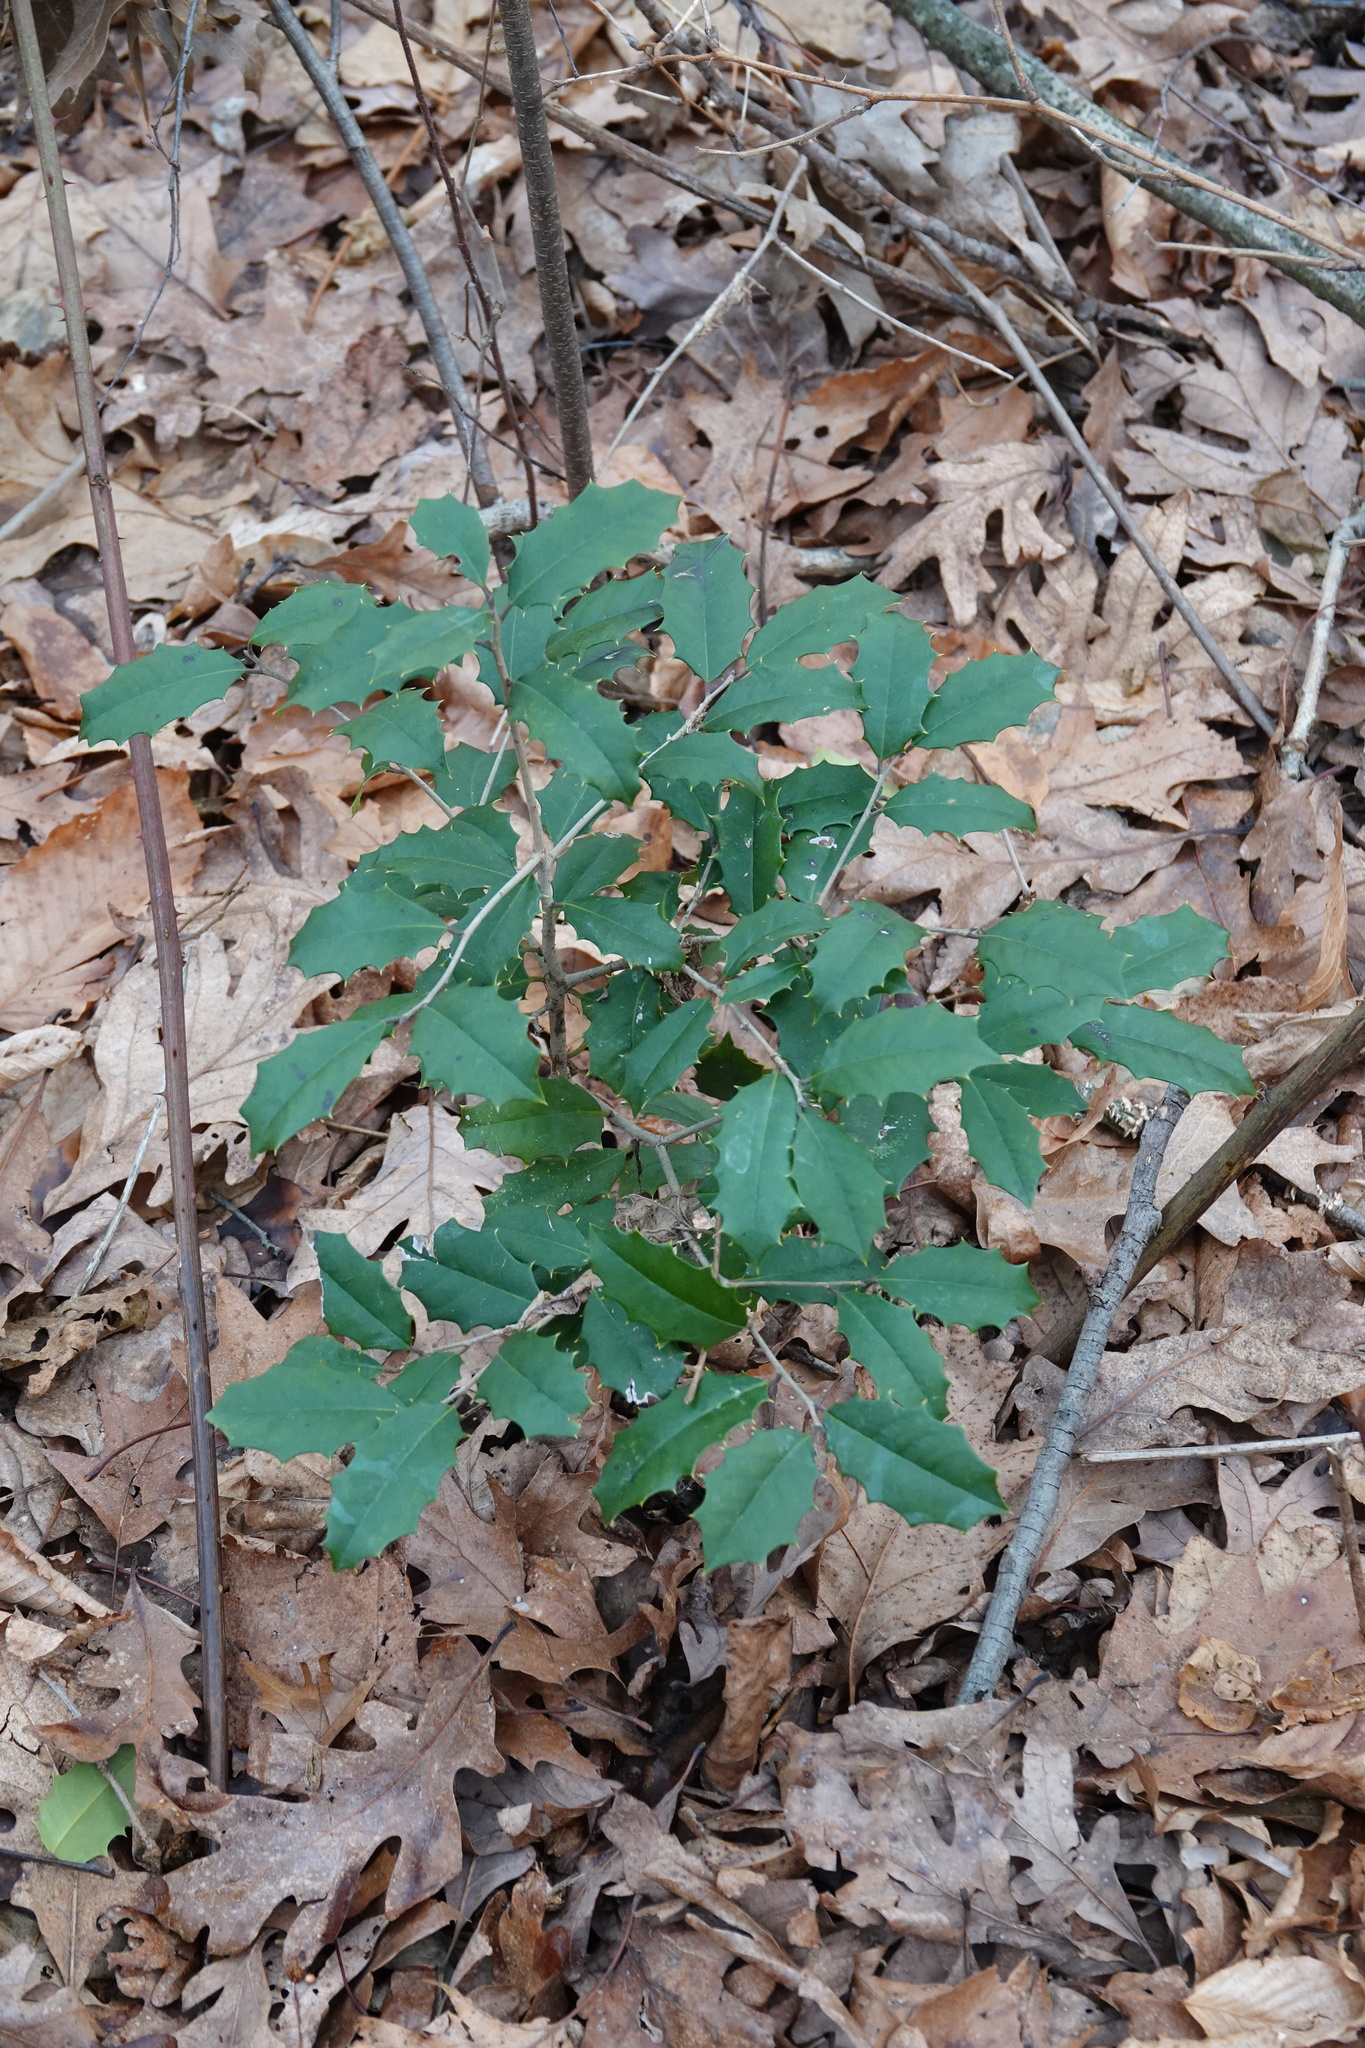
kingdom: Plantae
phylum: Tracheophyta
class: Magnoliopsida
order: Aquifoliales
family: Aquifoliaceae
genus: Ilex
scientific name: Ilex opaca
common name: American holly
